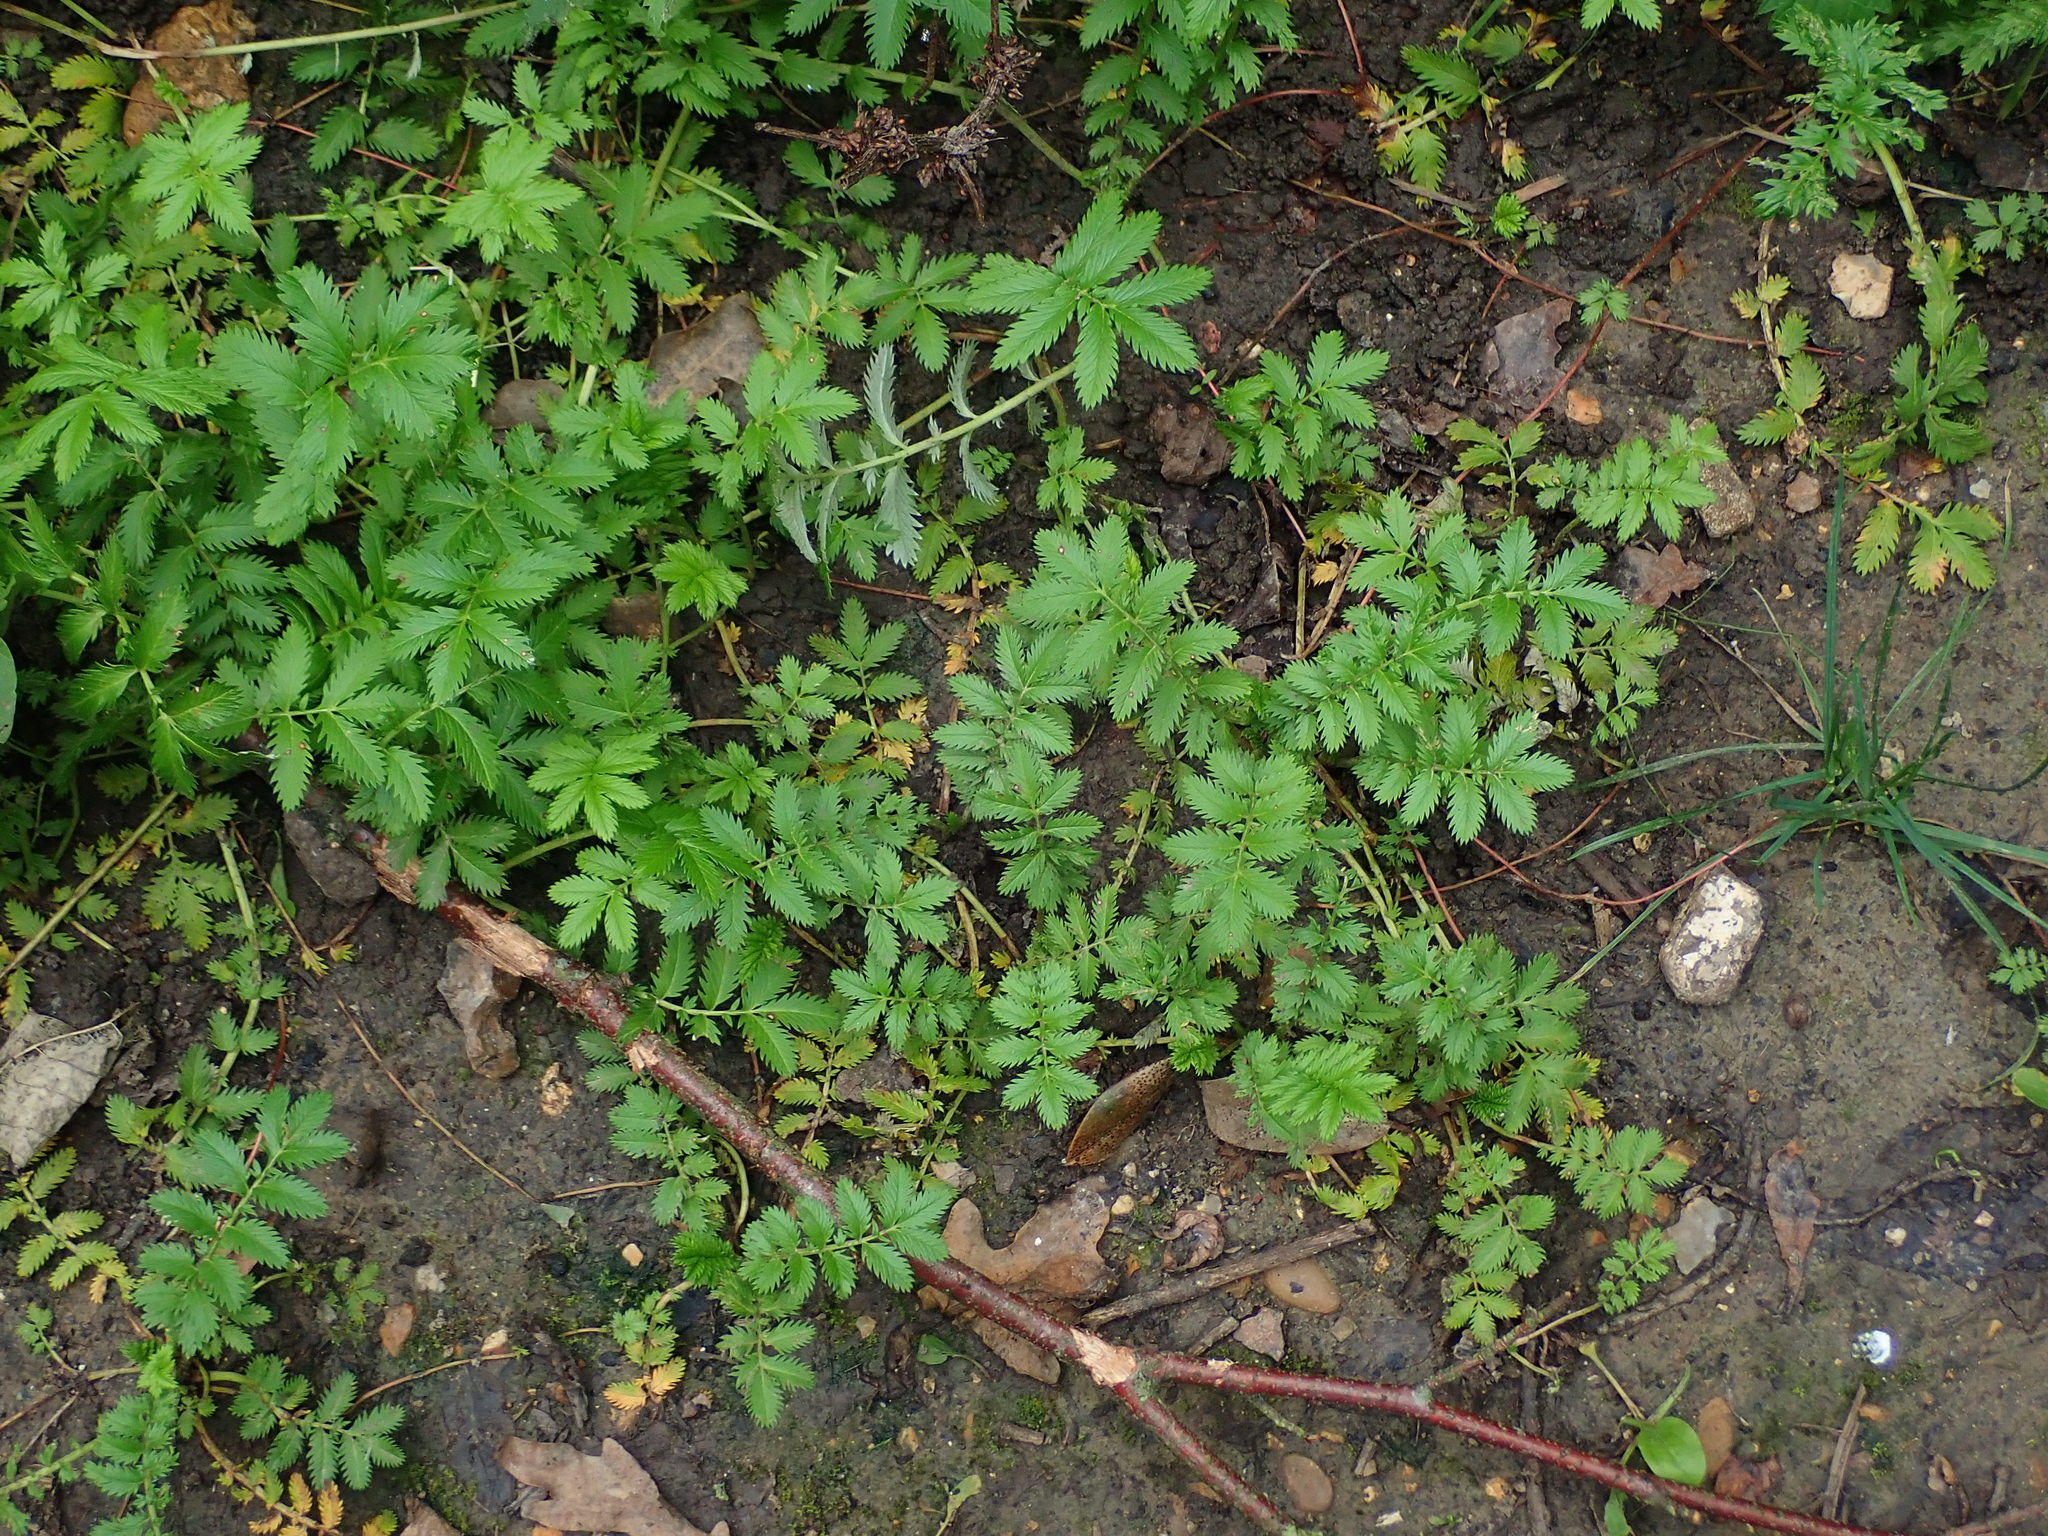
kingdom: Plantae
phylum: Tracheophyta
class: Magnoliopsida
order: Rosales
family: Rosaceae
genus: Argentina
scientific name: Argentina anserina
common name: Common silverweed
